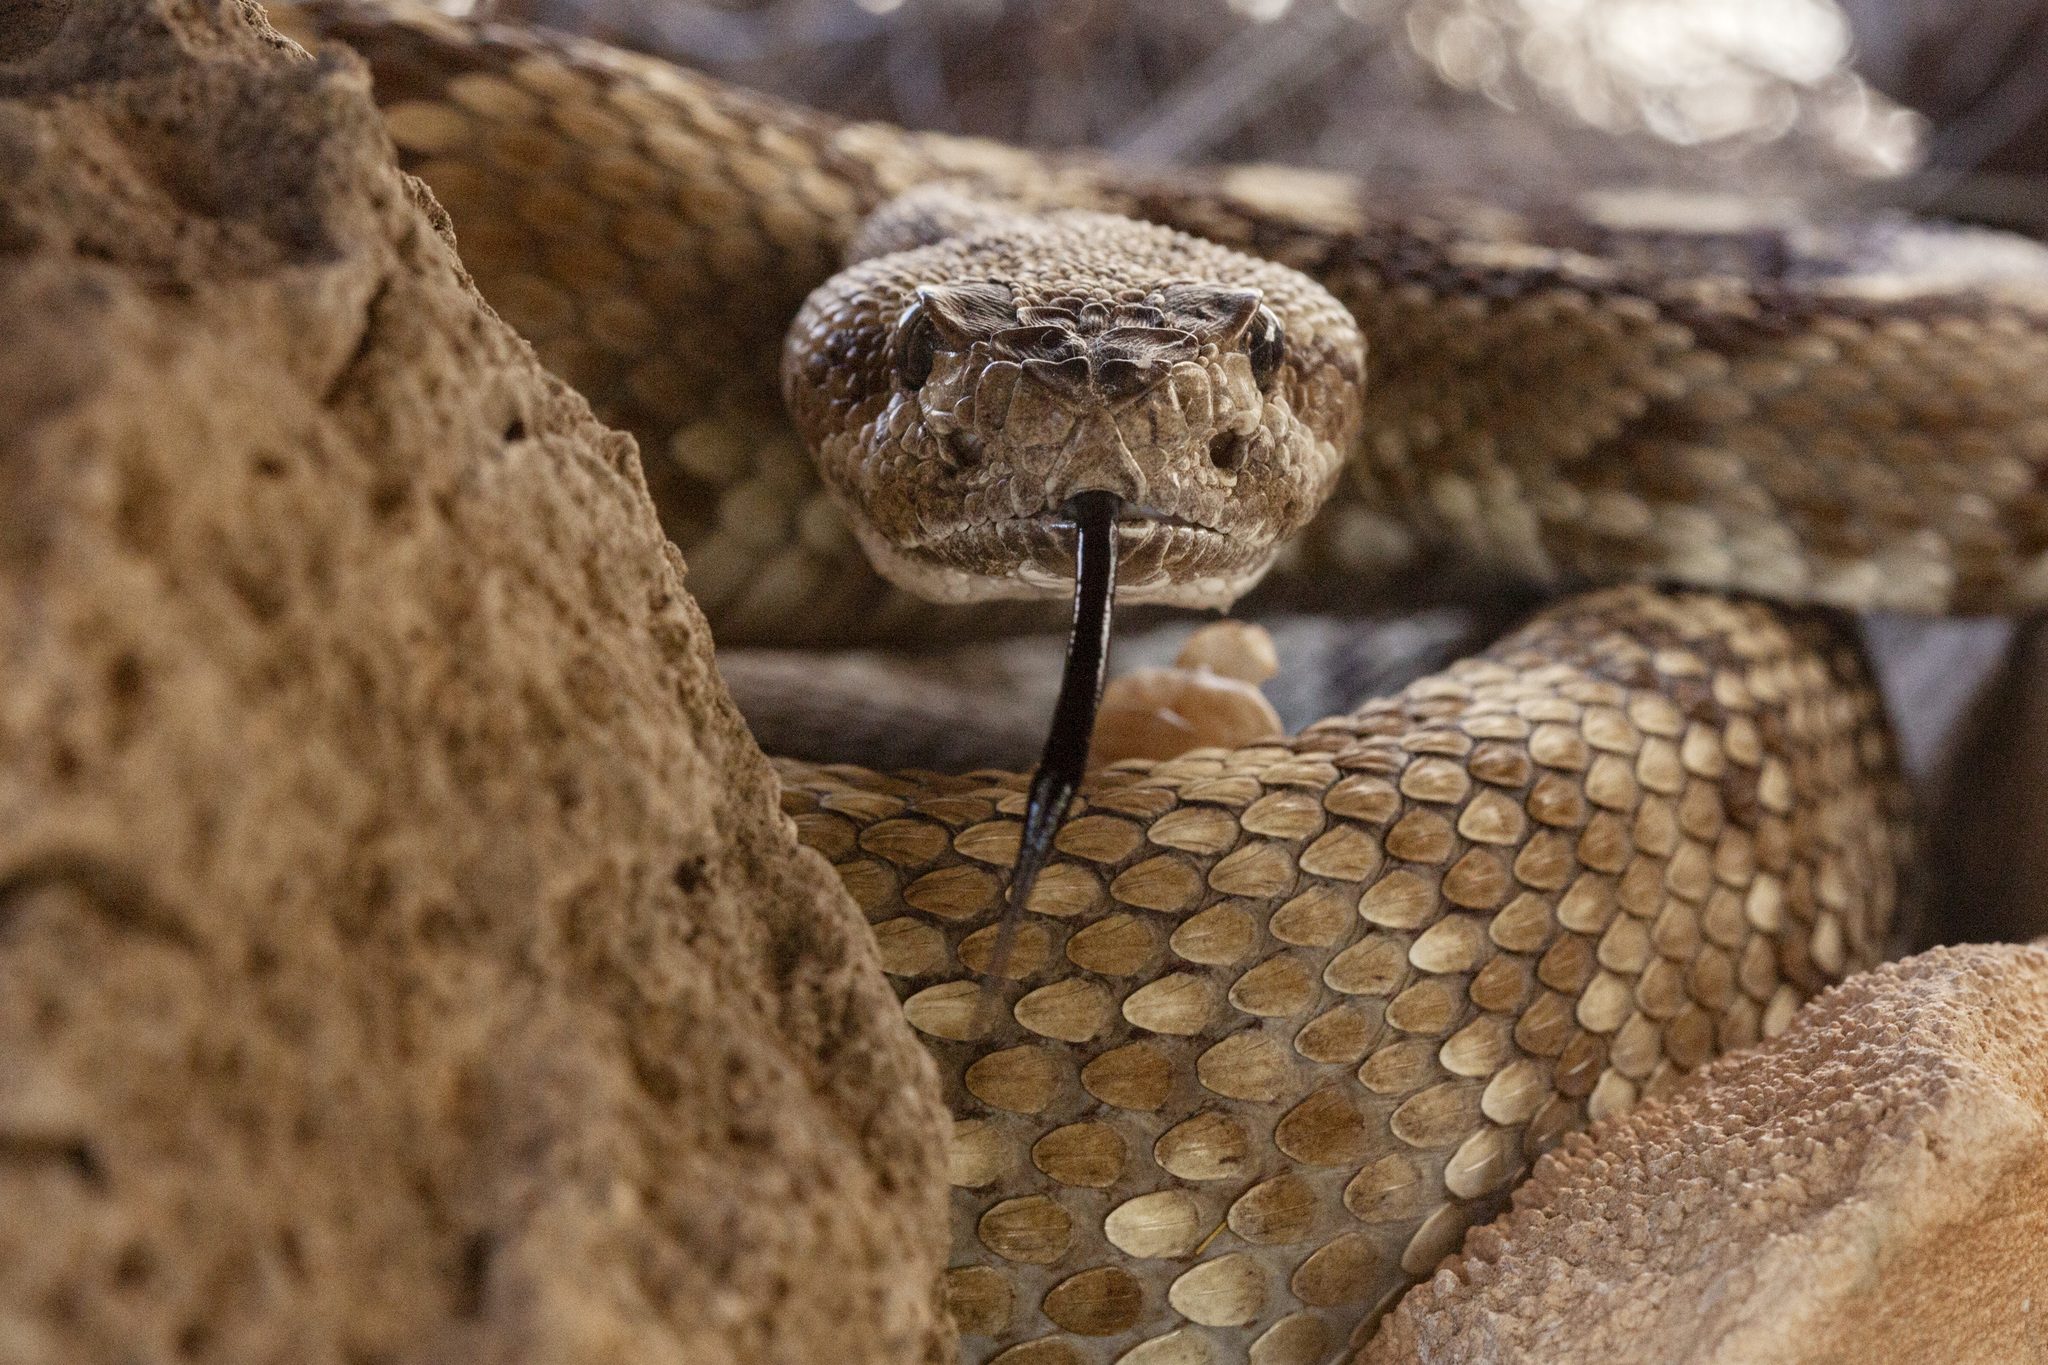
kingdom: Animalia
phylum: Chordata
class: Squamata
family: Viperidae
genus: Crotalus
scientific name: Crotalus ornatus
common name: Black-tailed rattlesnake
